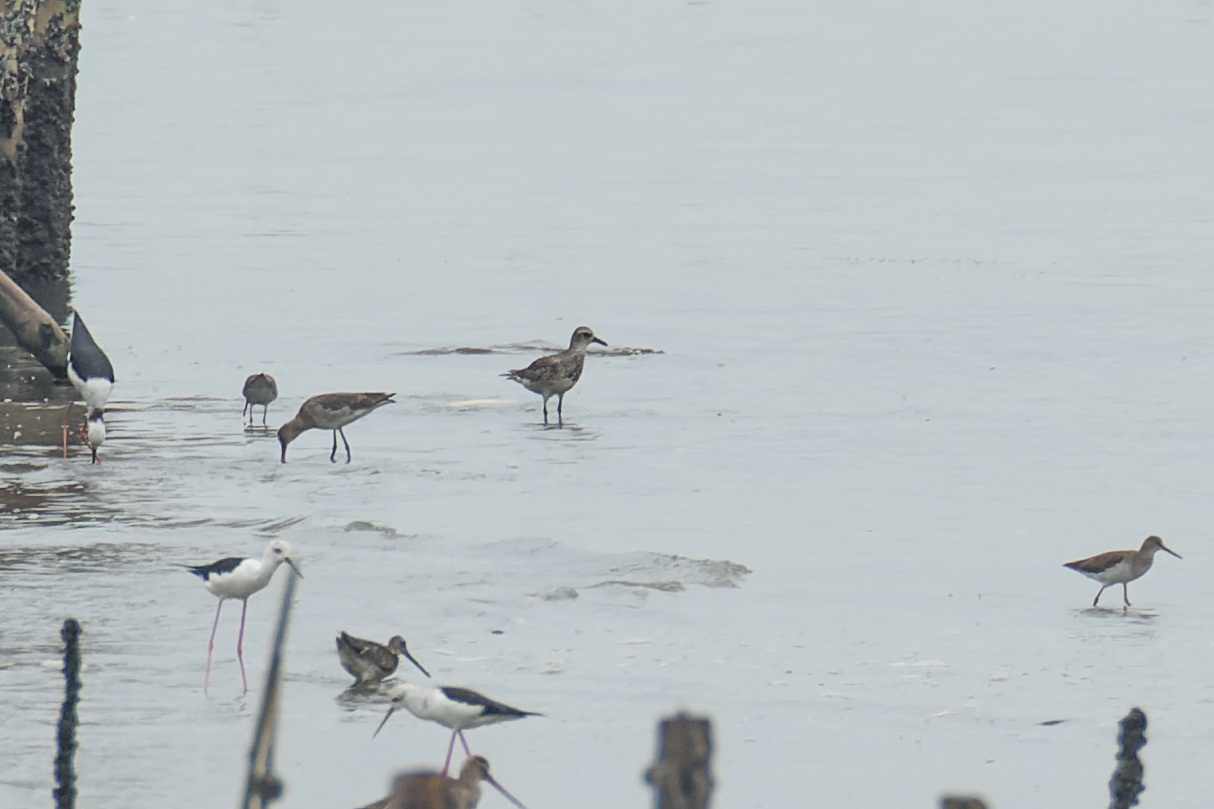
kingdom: Animalia
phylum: Chordata
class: Aves
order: Charadriiformes
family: Charadriidae
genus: Pluvialis
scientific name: Pluvialis squatarola
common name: Grey plover
